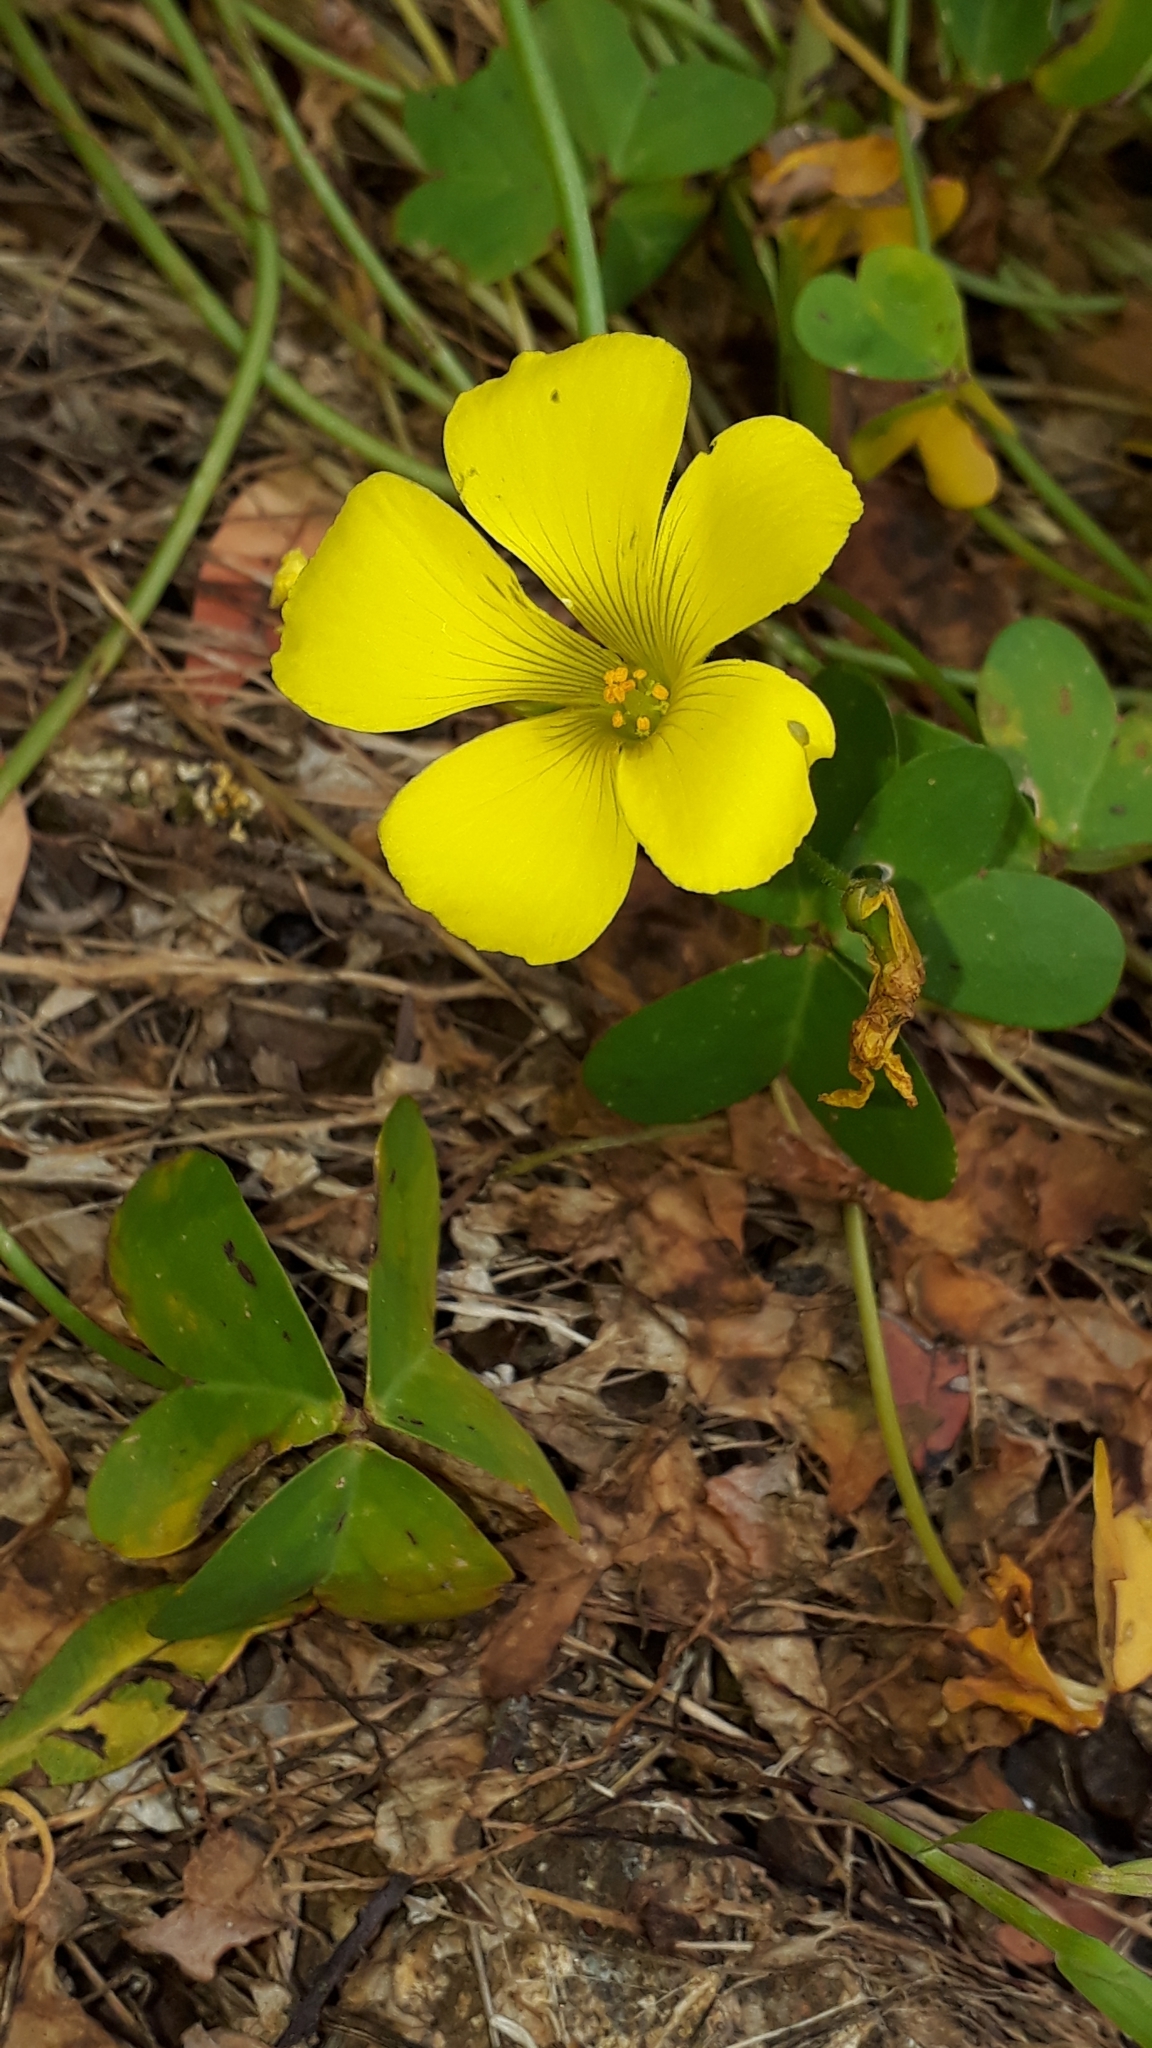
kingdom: Plantae
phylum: Tracheophyta
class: Magnoliopsida
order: Oxalidales
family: Oxalidaceae
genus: Oxalis
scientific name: Oxalis pes-caprae
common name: Bermuda-buttercup
